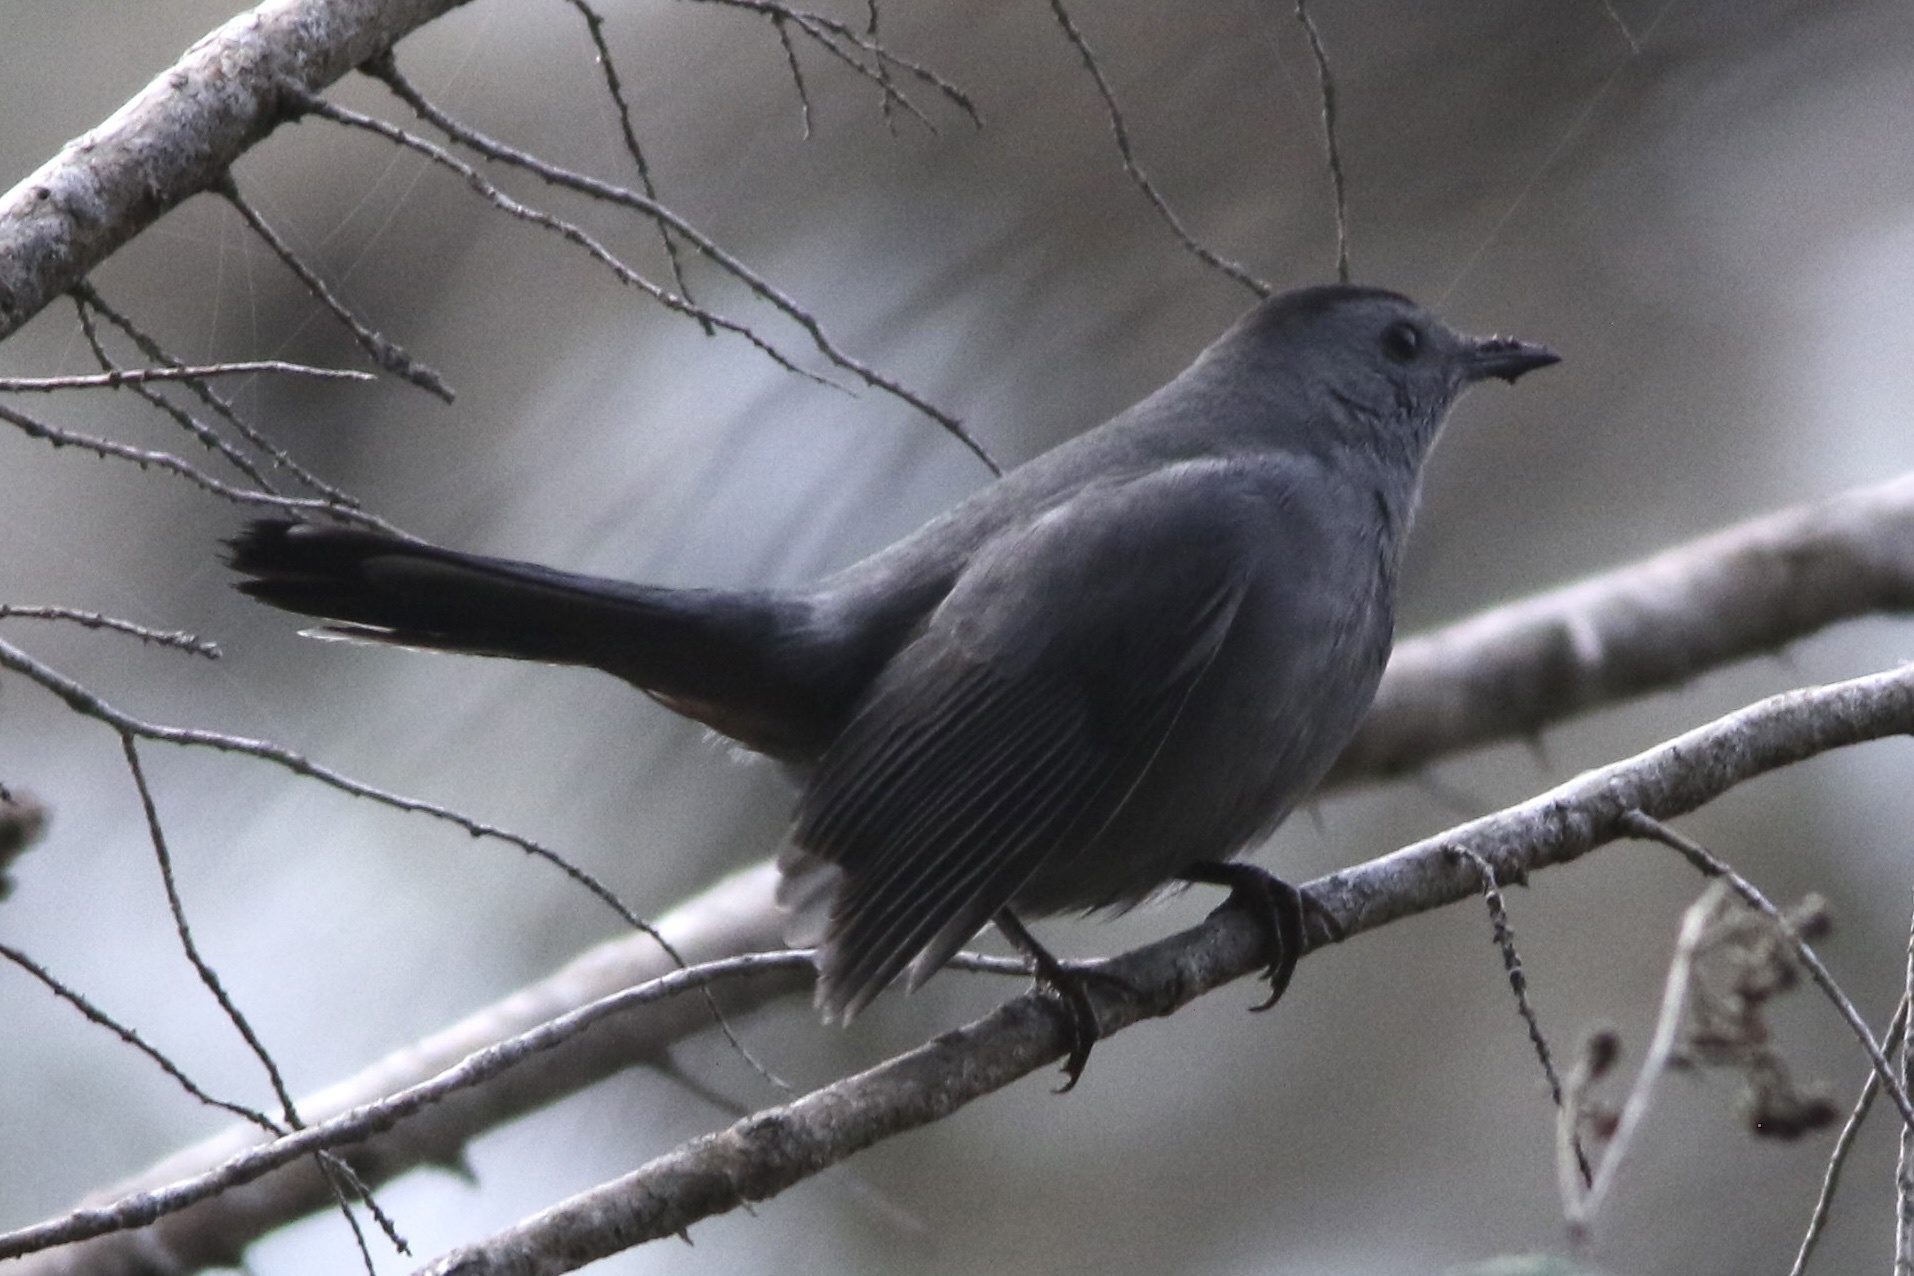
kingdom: Animalia
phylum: Chordata
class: Aves
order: Passeriformes
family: Mimidae
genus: Dumetella
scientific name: Dumetella carolinensis
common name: Gray catbird
